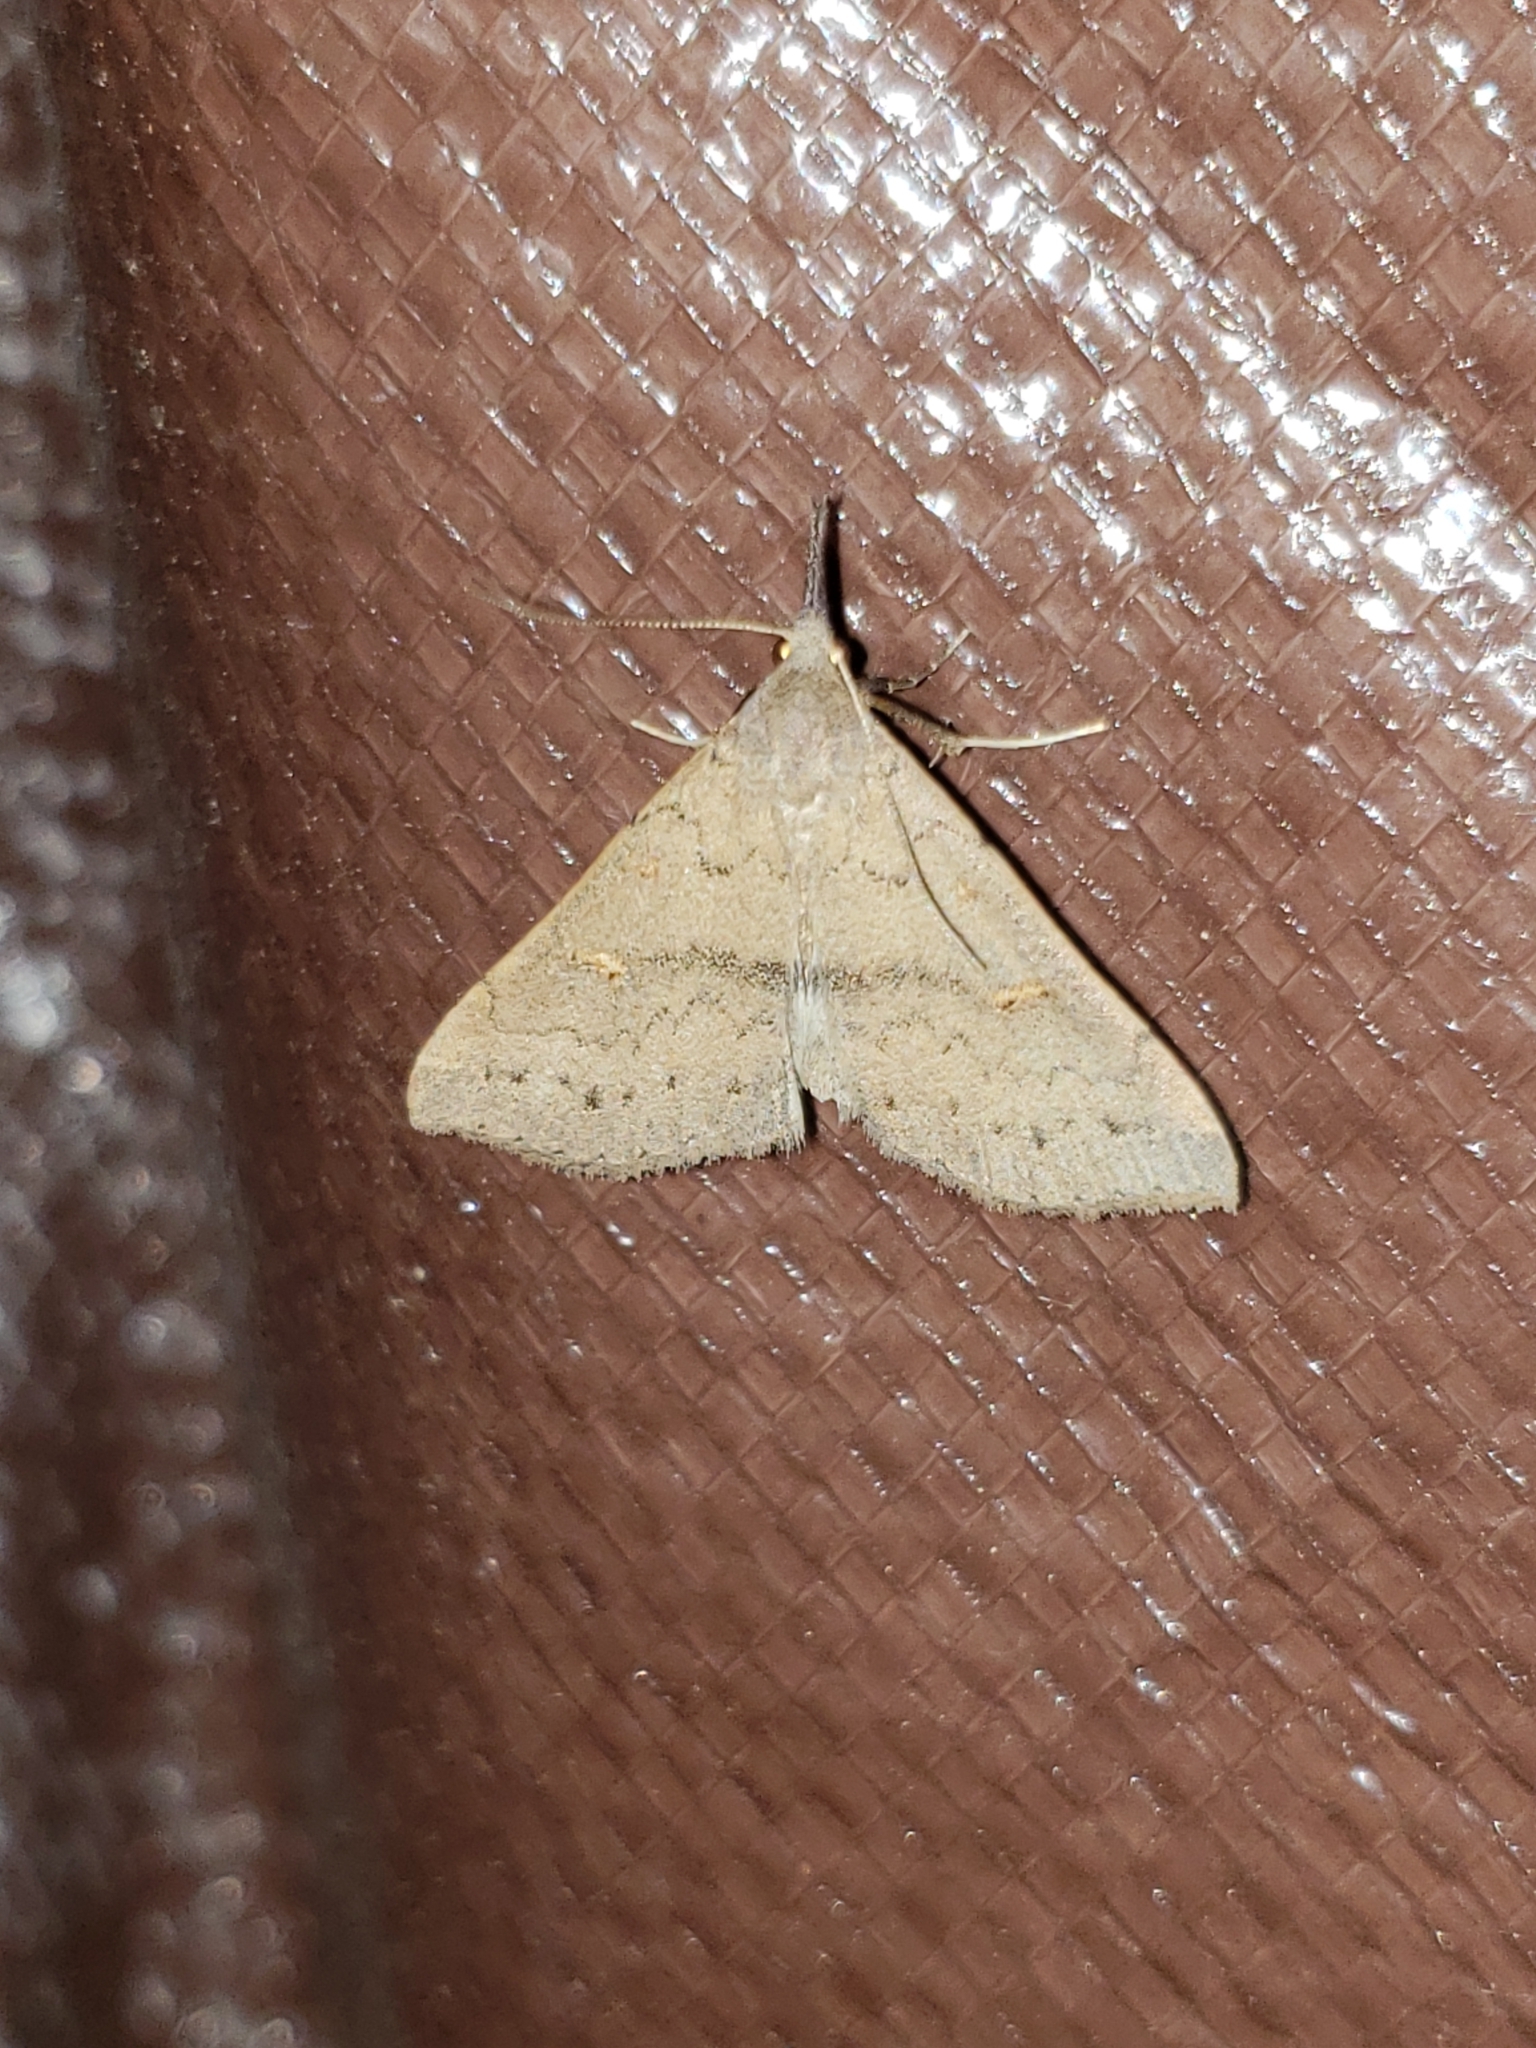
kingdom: Animalia
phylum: Arthropoda
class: Insecta
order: Lepidoptera
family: Erebidae
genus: Renia
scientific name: Renia adspergillus
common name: Speckled renia moth
